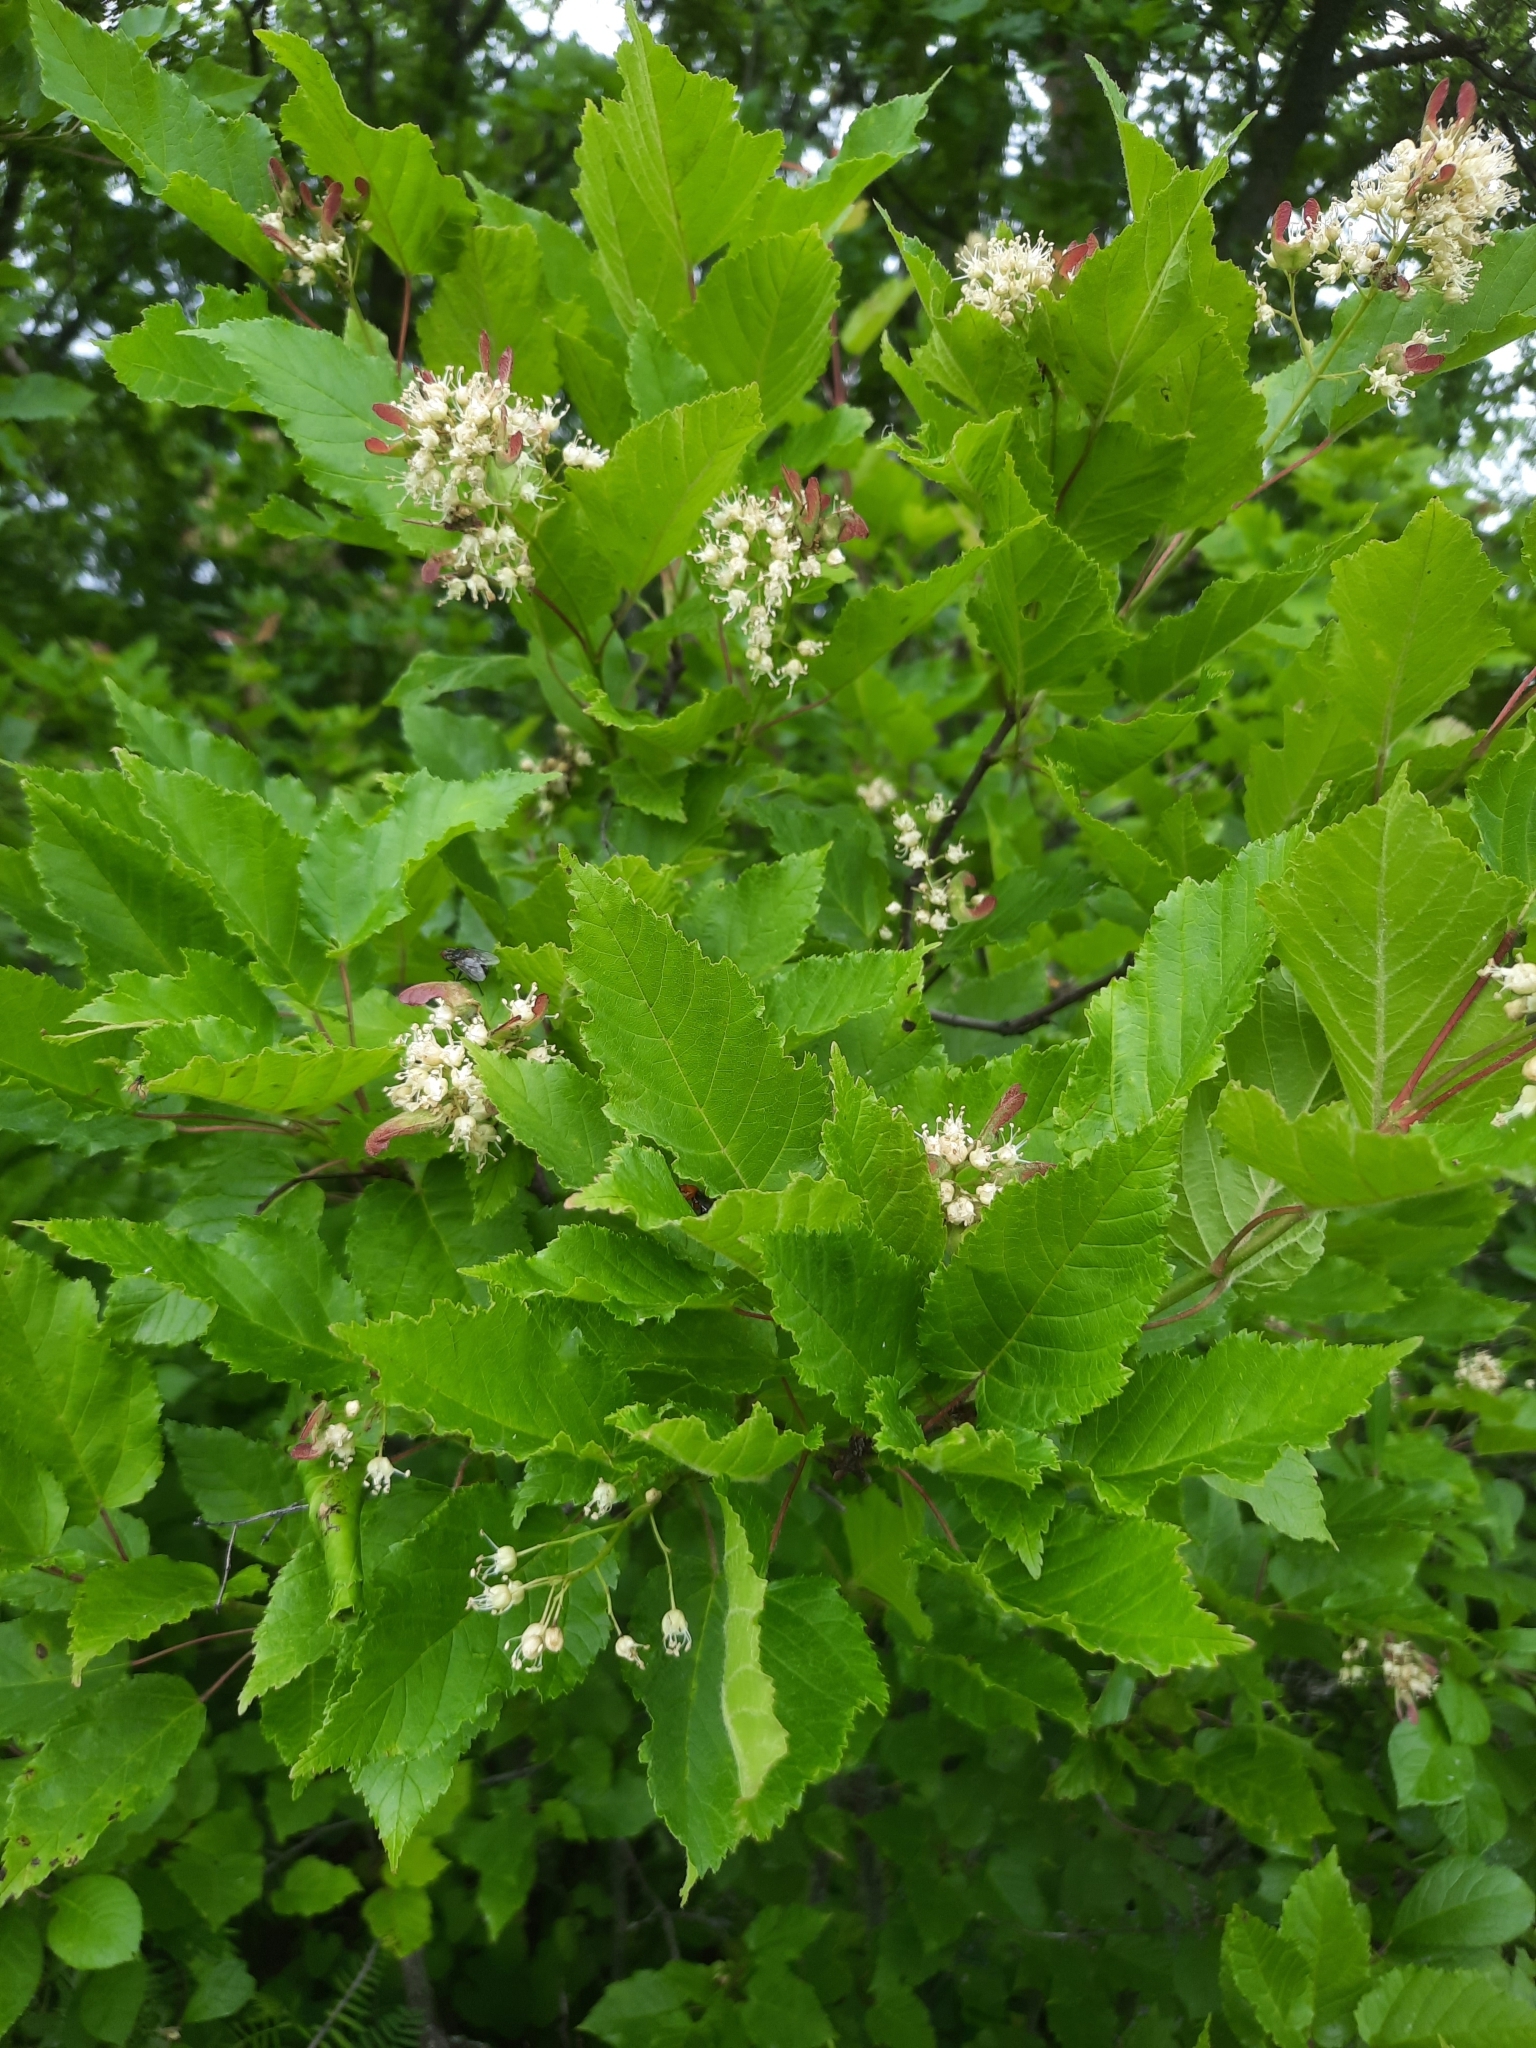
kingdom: Plantae
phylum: Tracheophyta
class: Magnoliopsida
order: Sapindales
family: Sapindaceae
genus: Acer
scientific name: Acer tataricum
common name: Tartar maple
